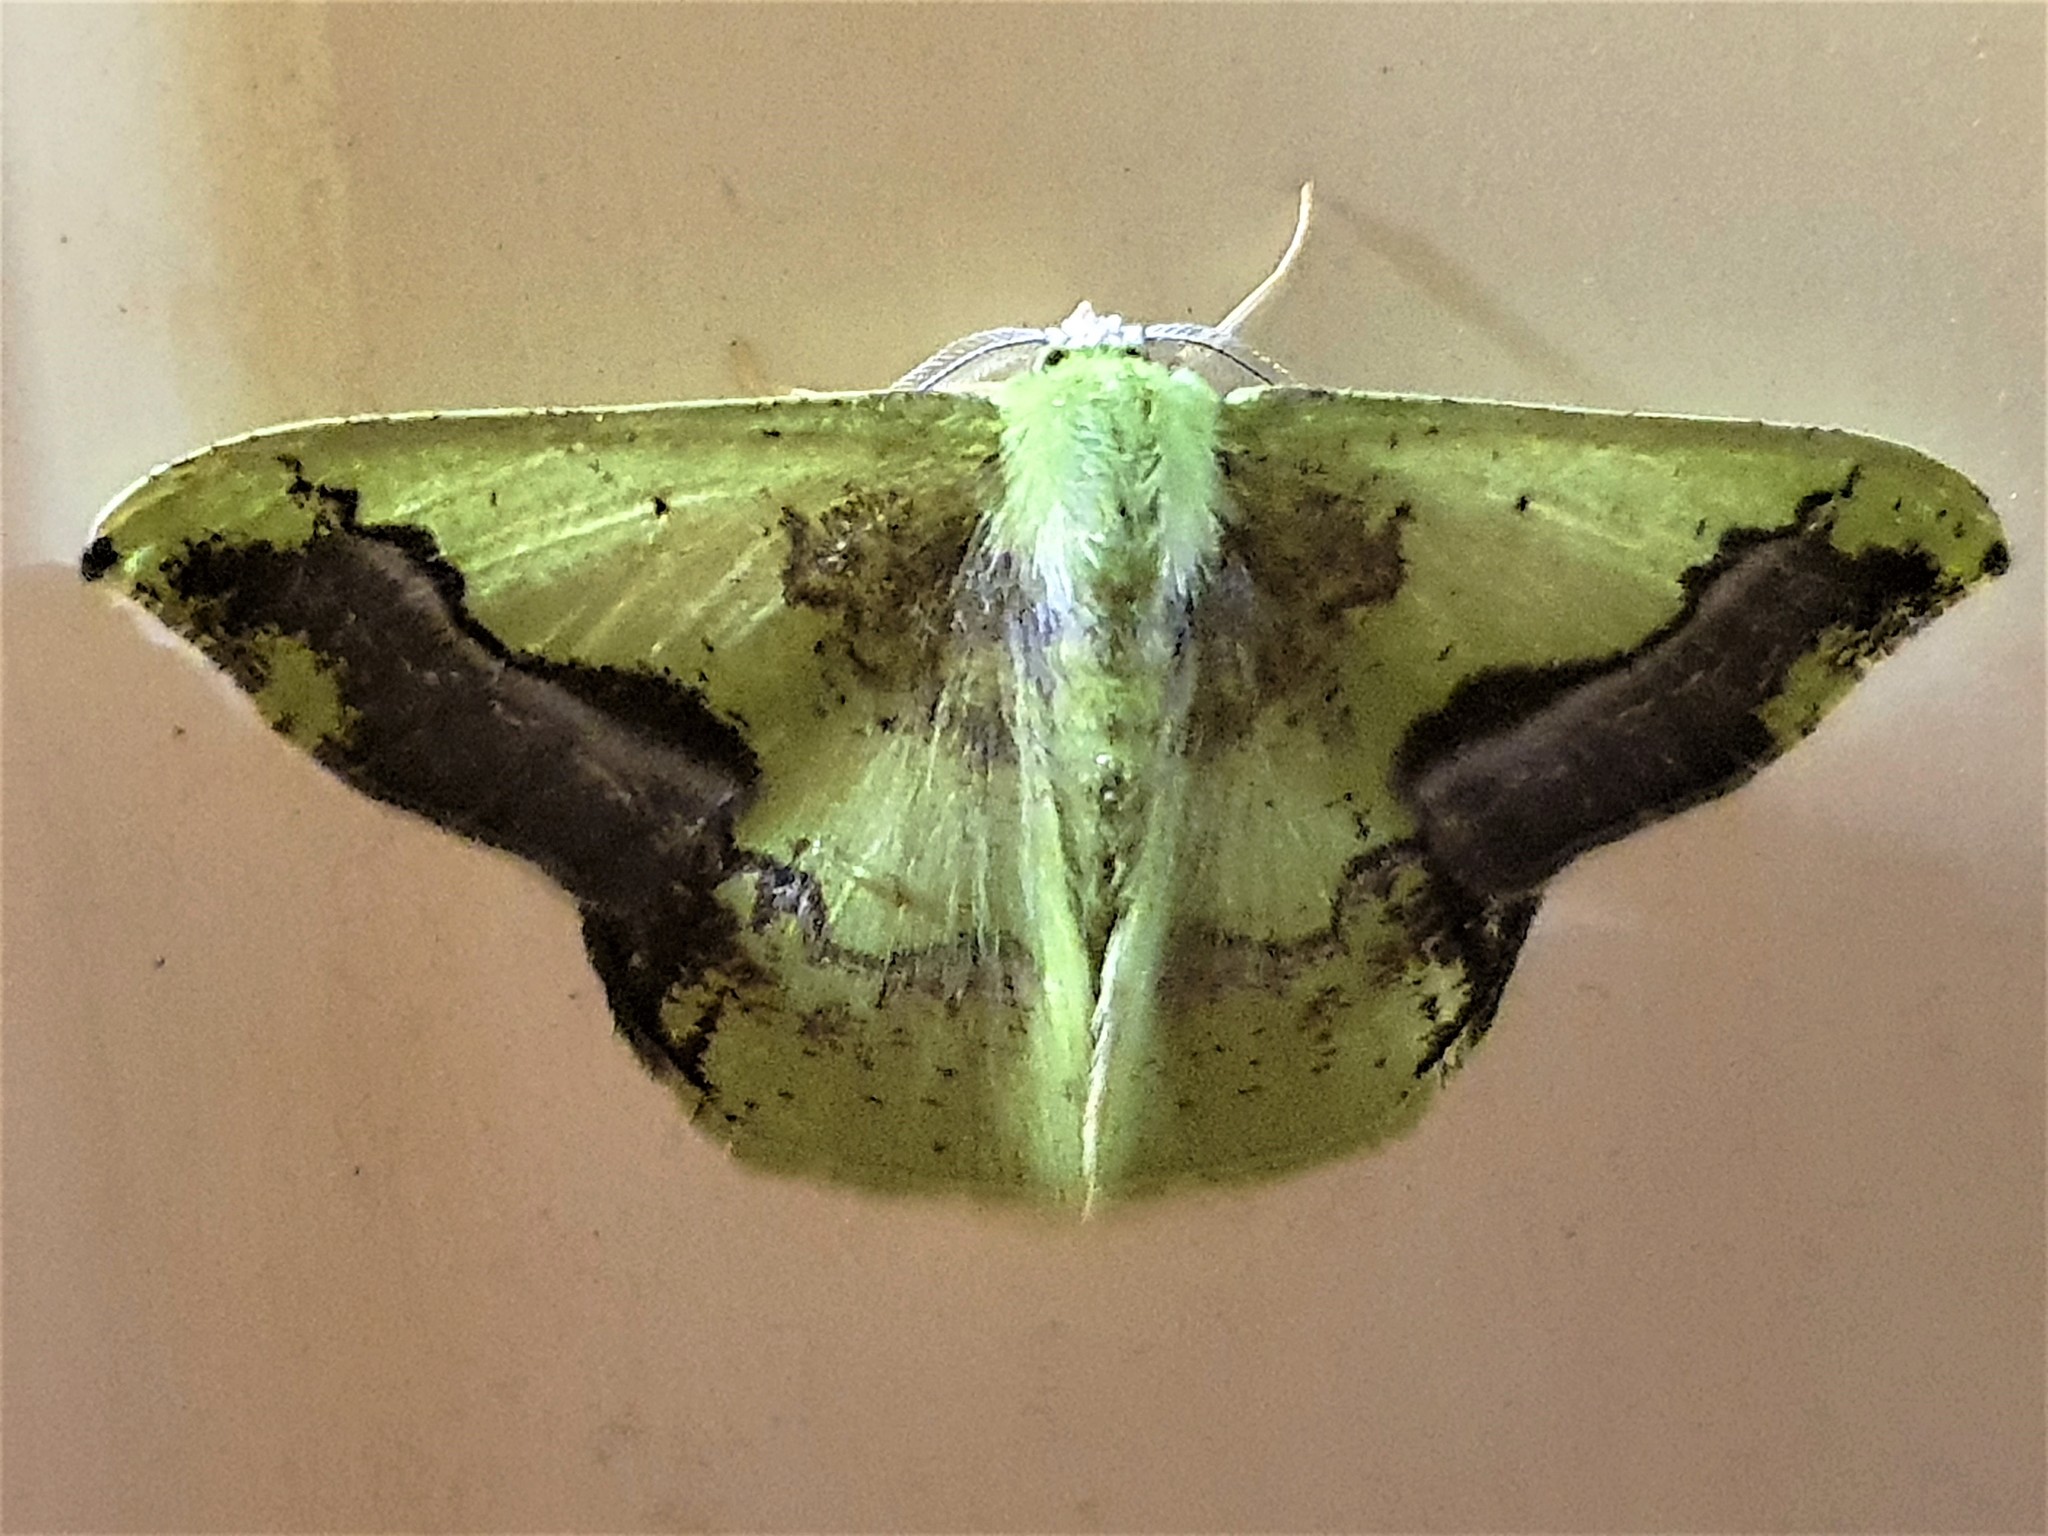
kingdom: Animalia
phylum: Arthropoda
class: Insecta
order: Lepidoptera
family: Geometridae
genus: Phrudocentra
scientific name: Phrudocentra janeira
